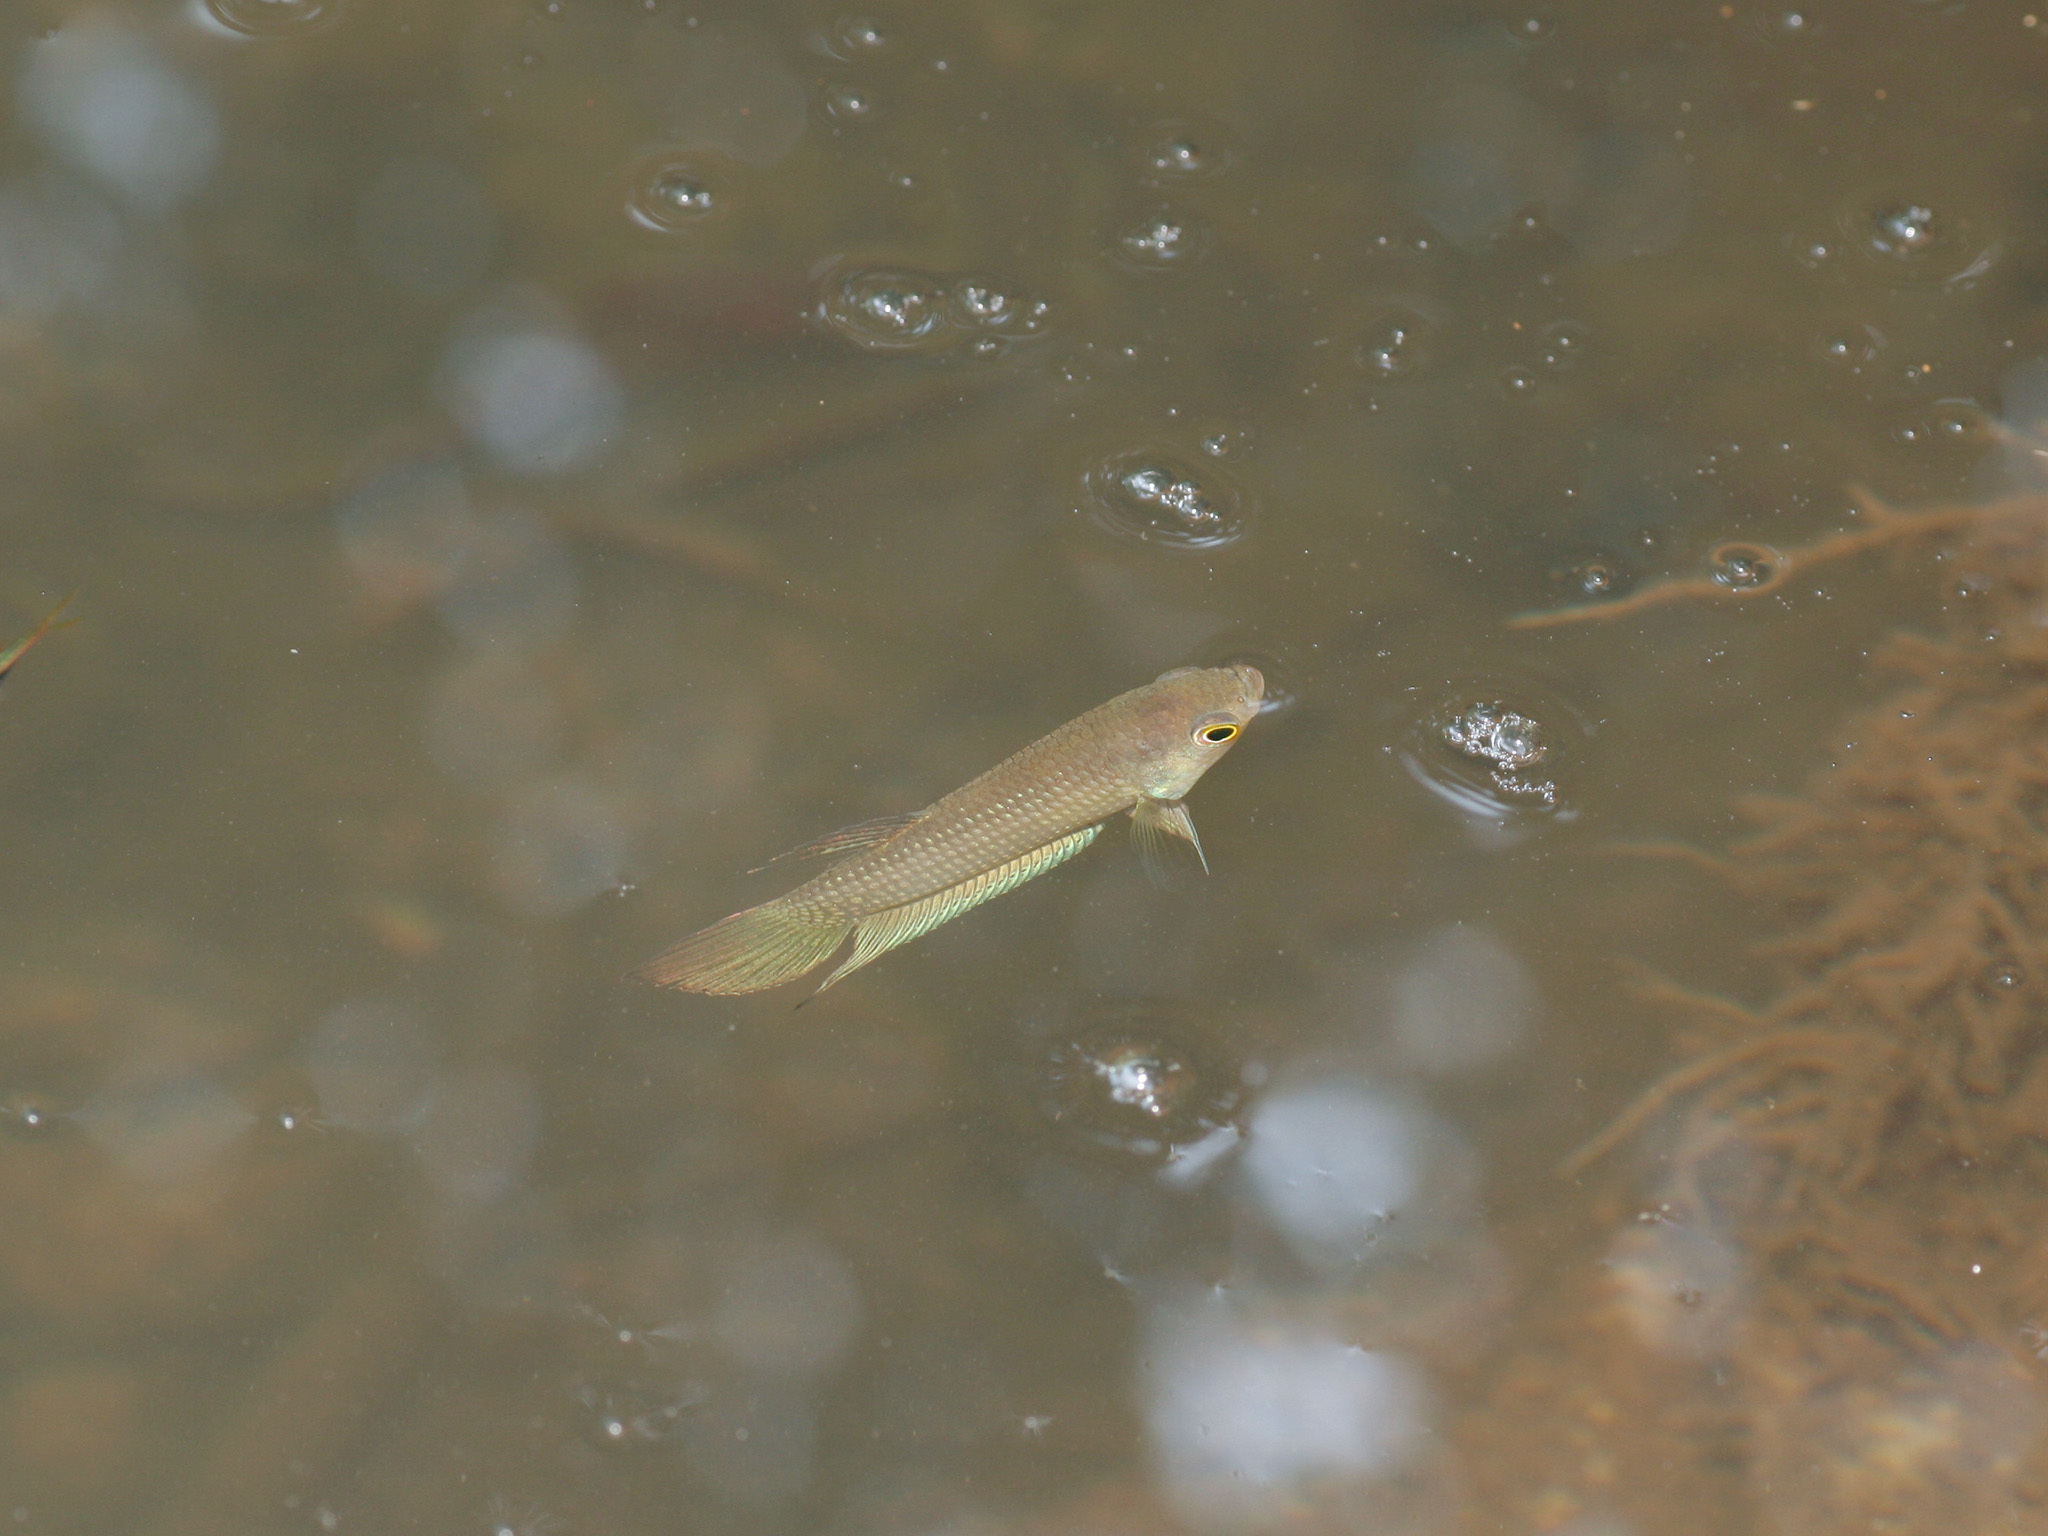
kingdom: Animalia
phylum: Chordata
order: Perciformes
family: Osphronemidae
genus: Betta
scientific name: Betta pugnax
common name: Penang betta
